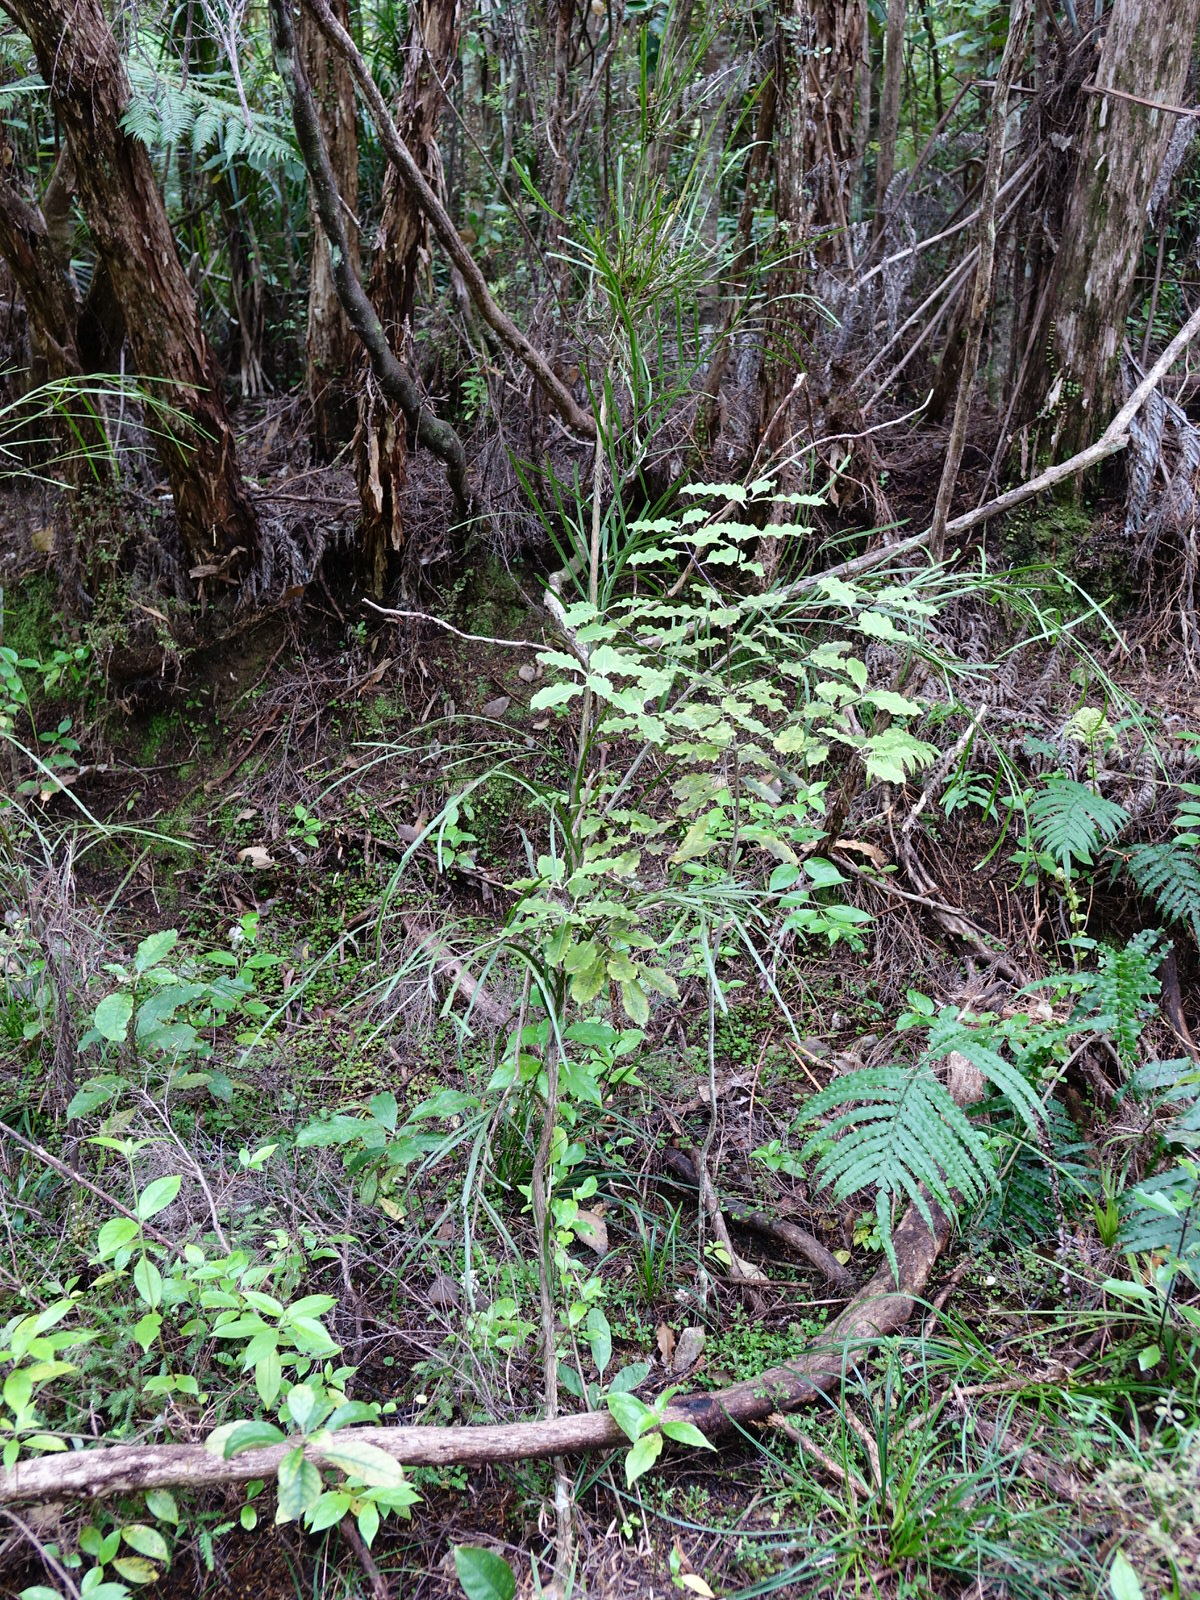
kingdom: Plantae
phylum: Tracheophyta
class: Magnoliopsida
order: Fabales
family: Fabaceae
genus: Carmichaelia
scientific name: Carmichaelia australis
